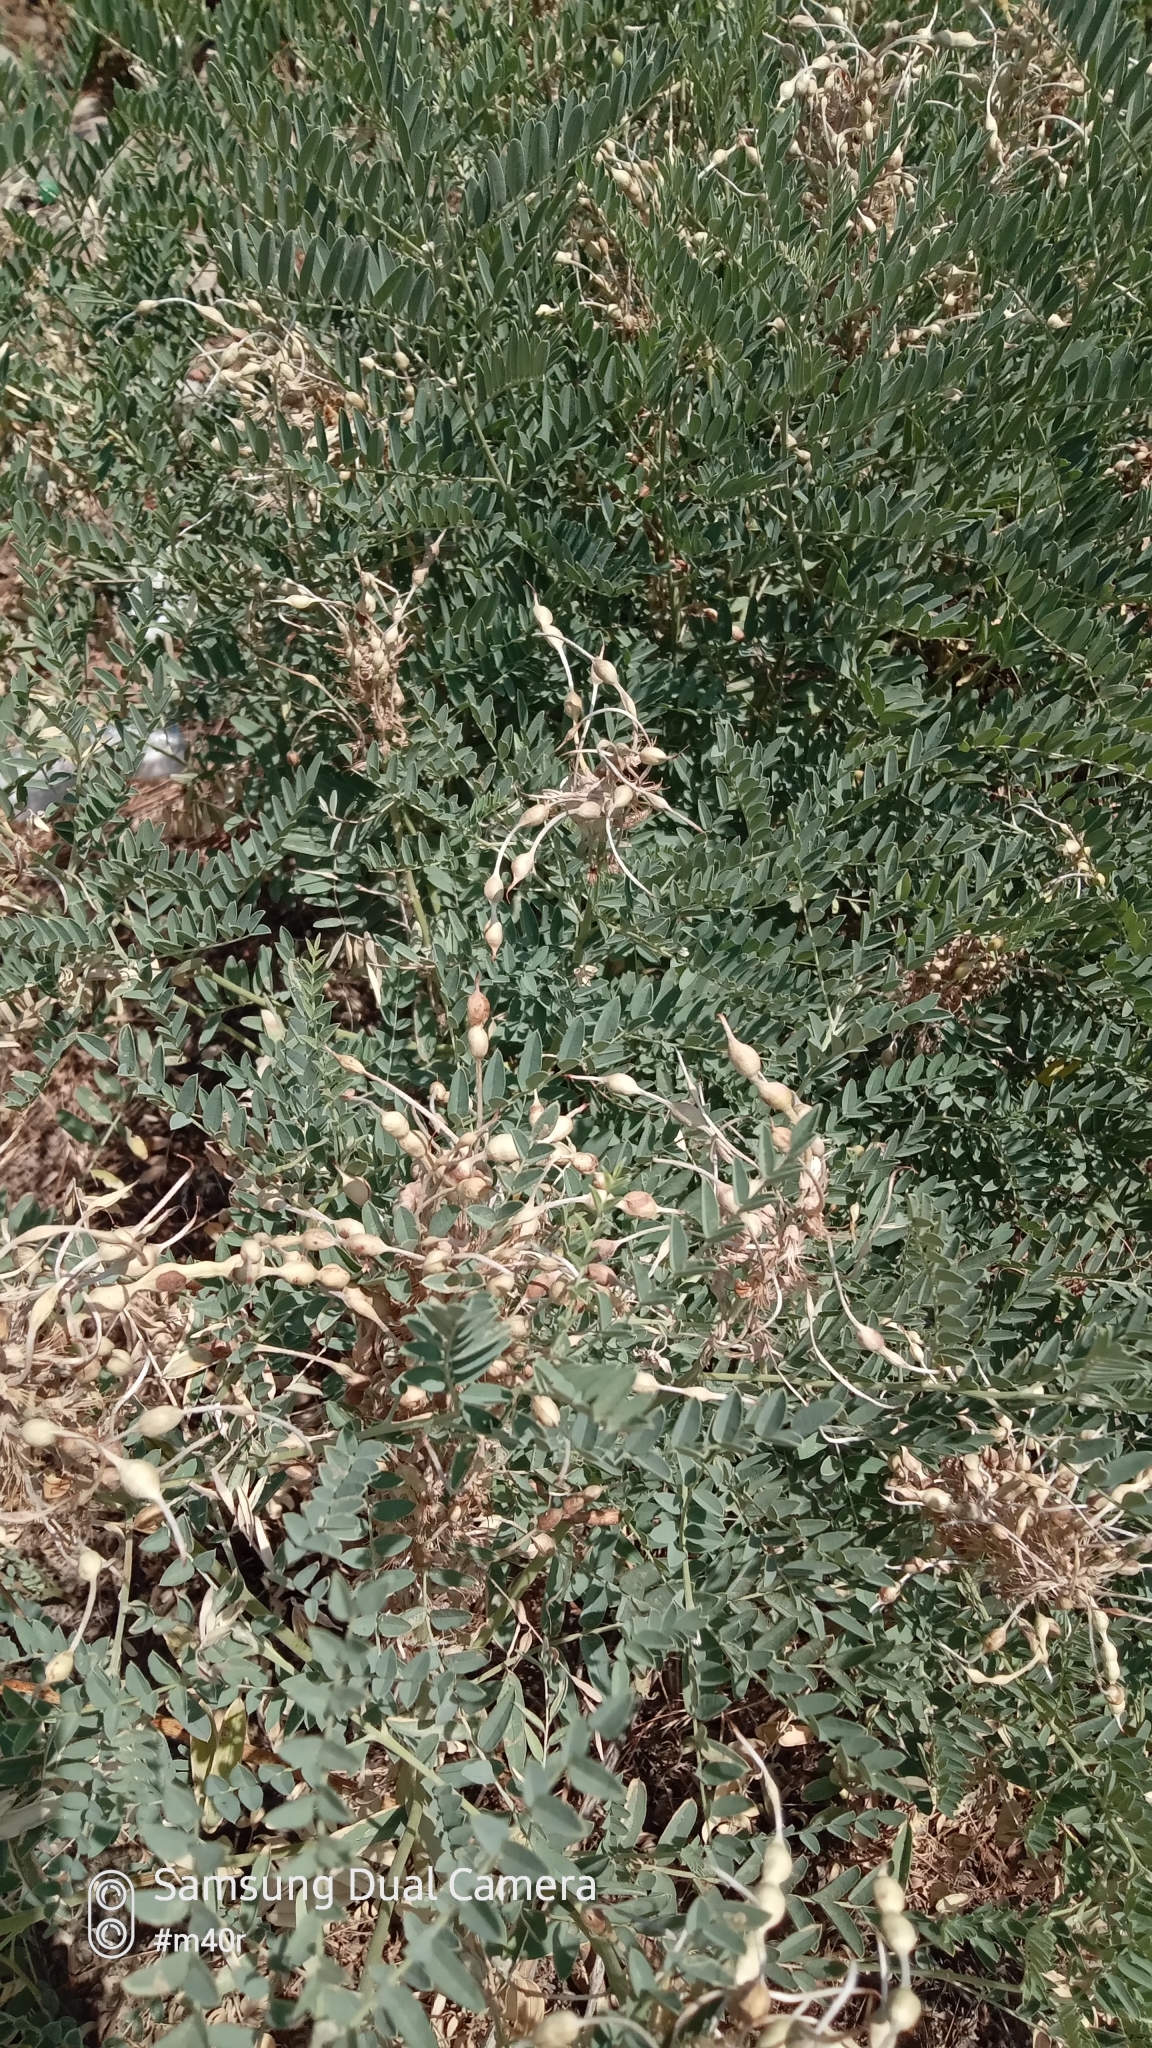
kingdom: Plantae
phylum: Tracheophyta
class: Magnoliopsida
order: Fabales
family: Fabaceae
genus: Sophora
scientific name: Sophora alopecuroides
